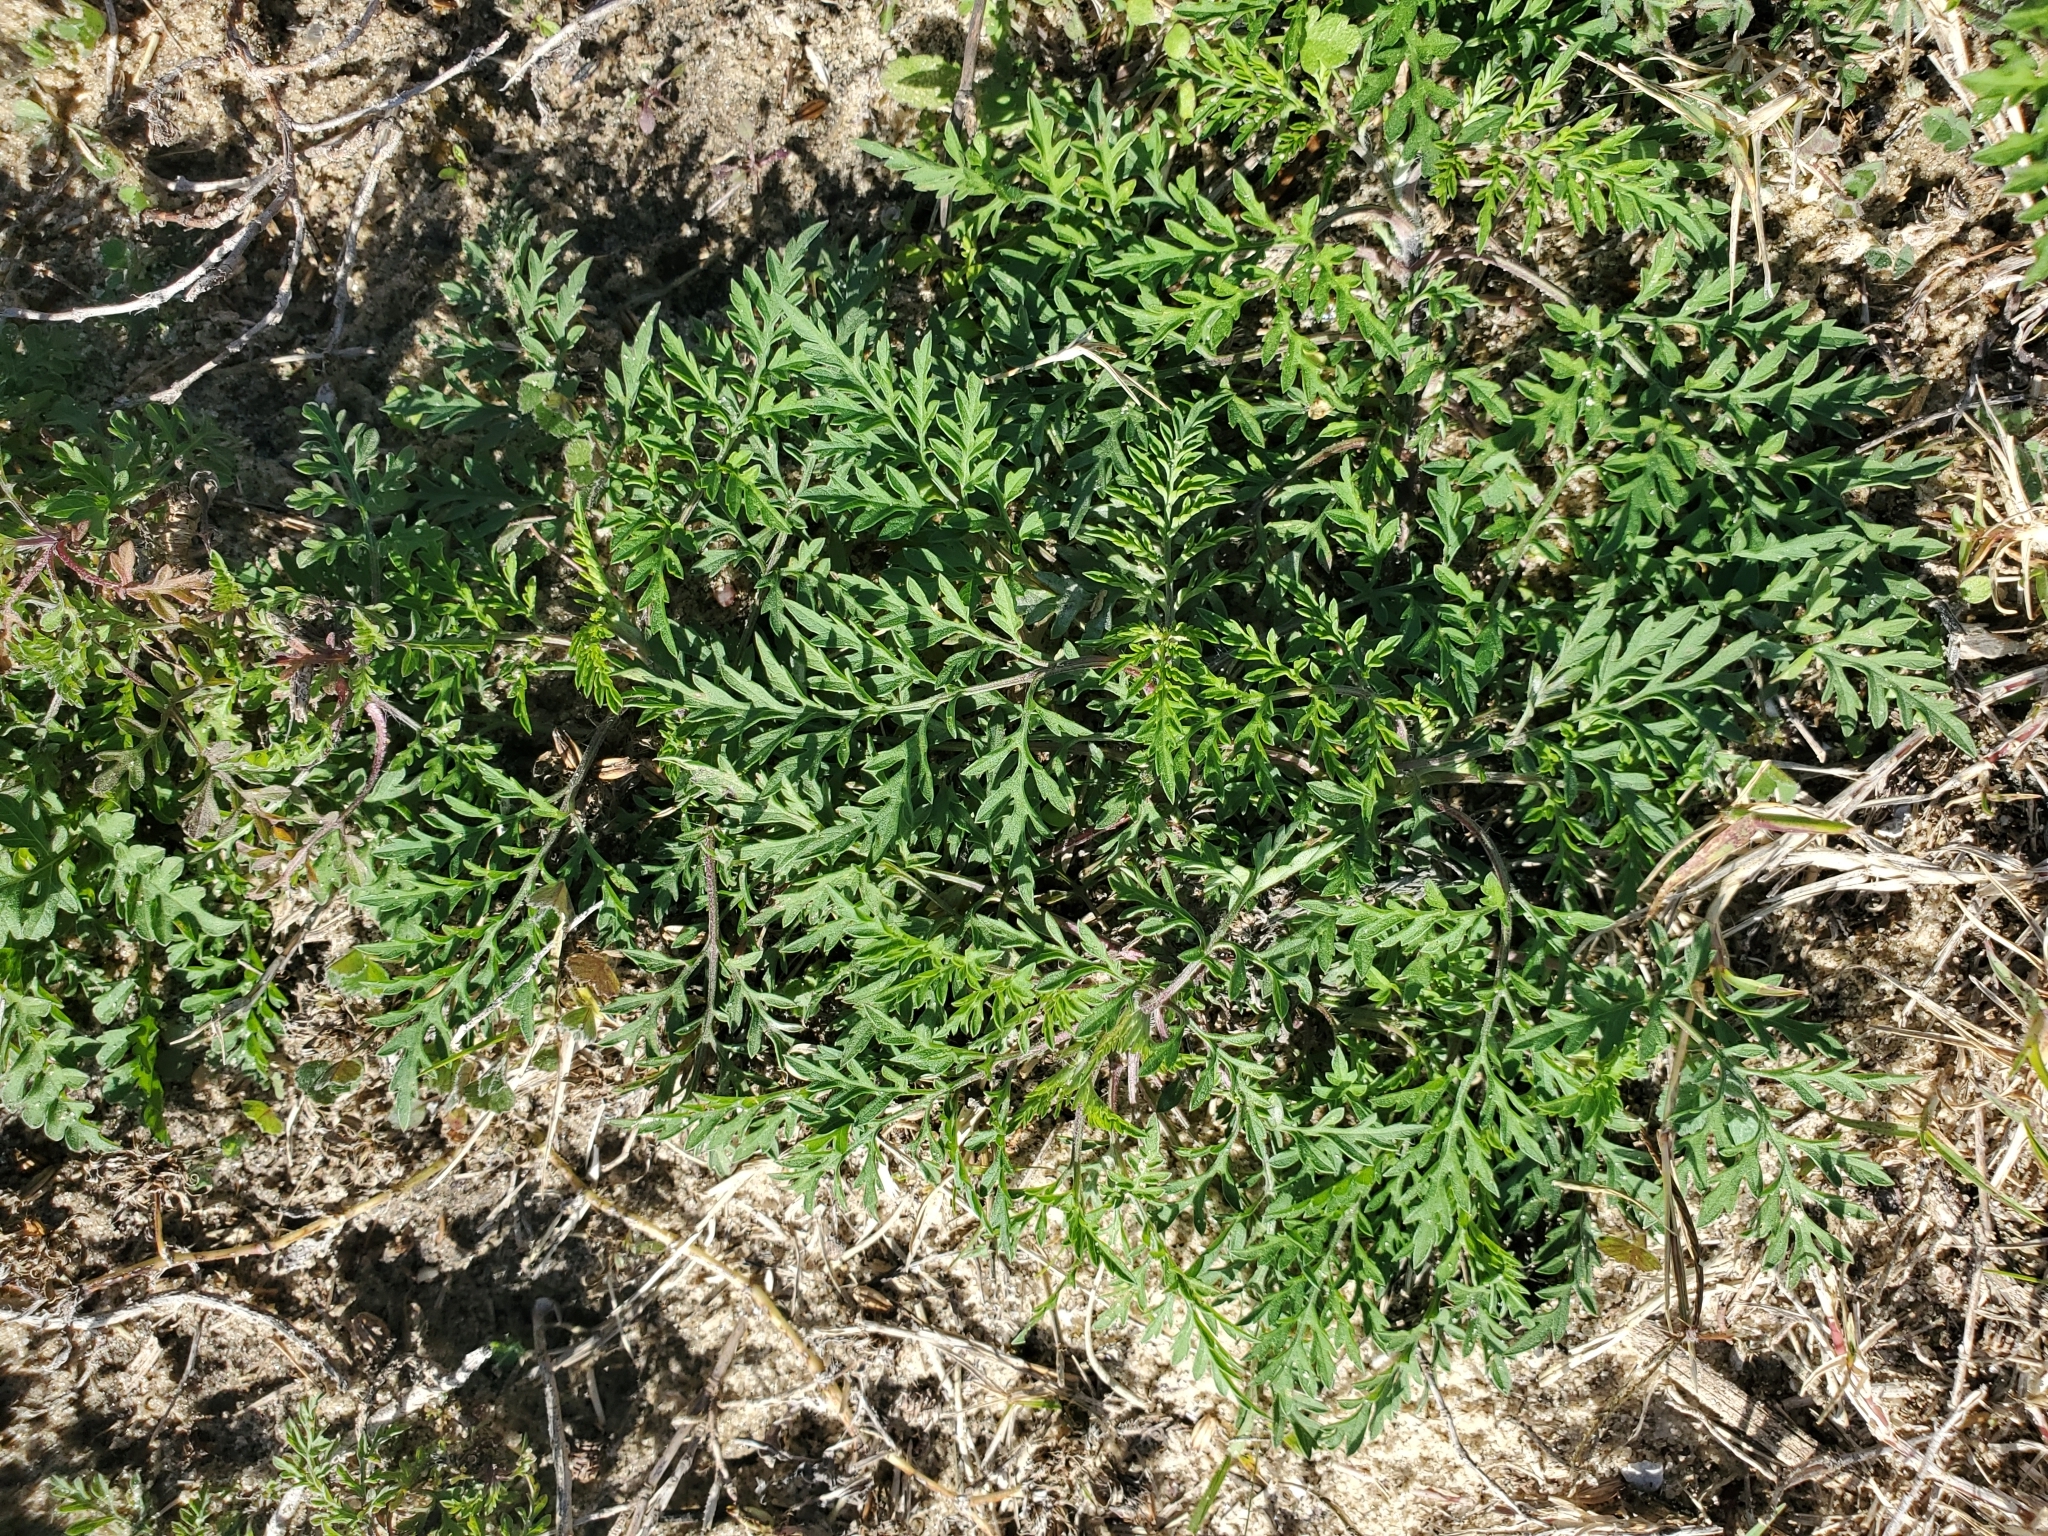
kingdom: Plantae
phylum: Tracheophyta
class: Magnoliopsida
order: Asterales
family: Asteraceae
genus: Ambrosia
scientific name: Ambrosia artemisiifolia
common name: Annual ragweed
